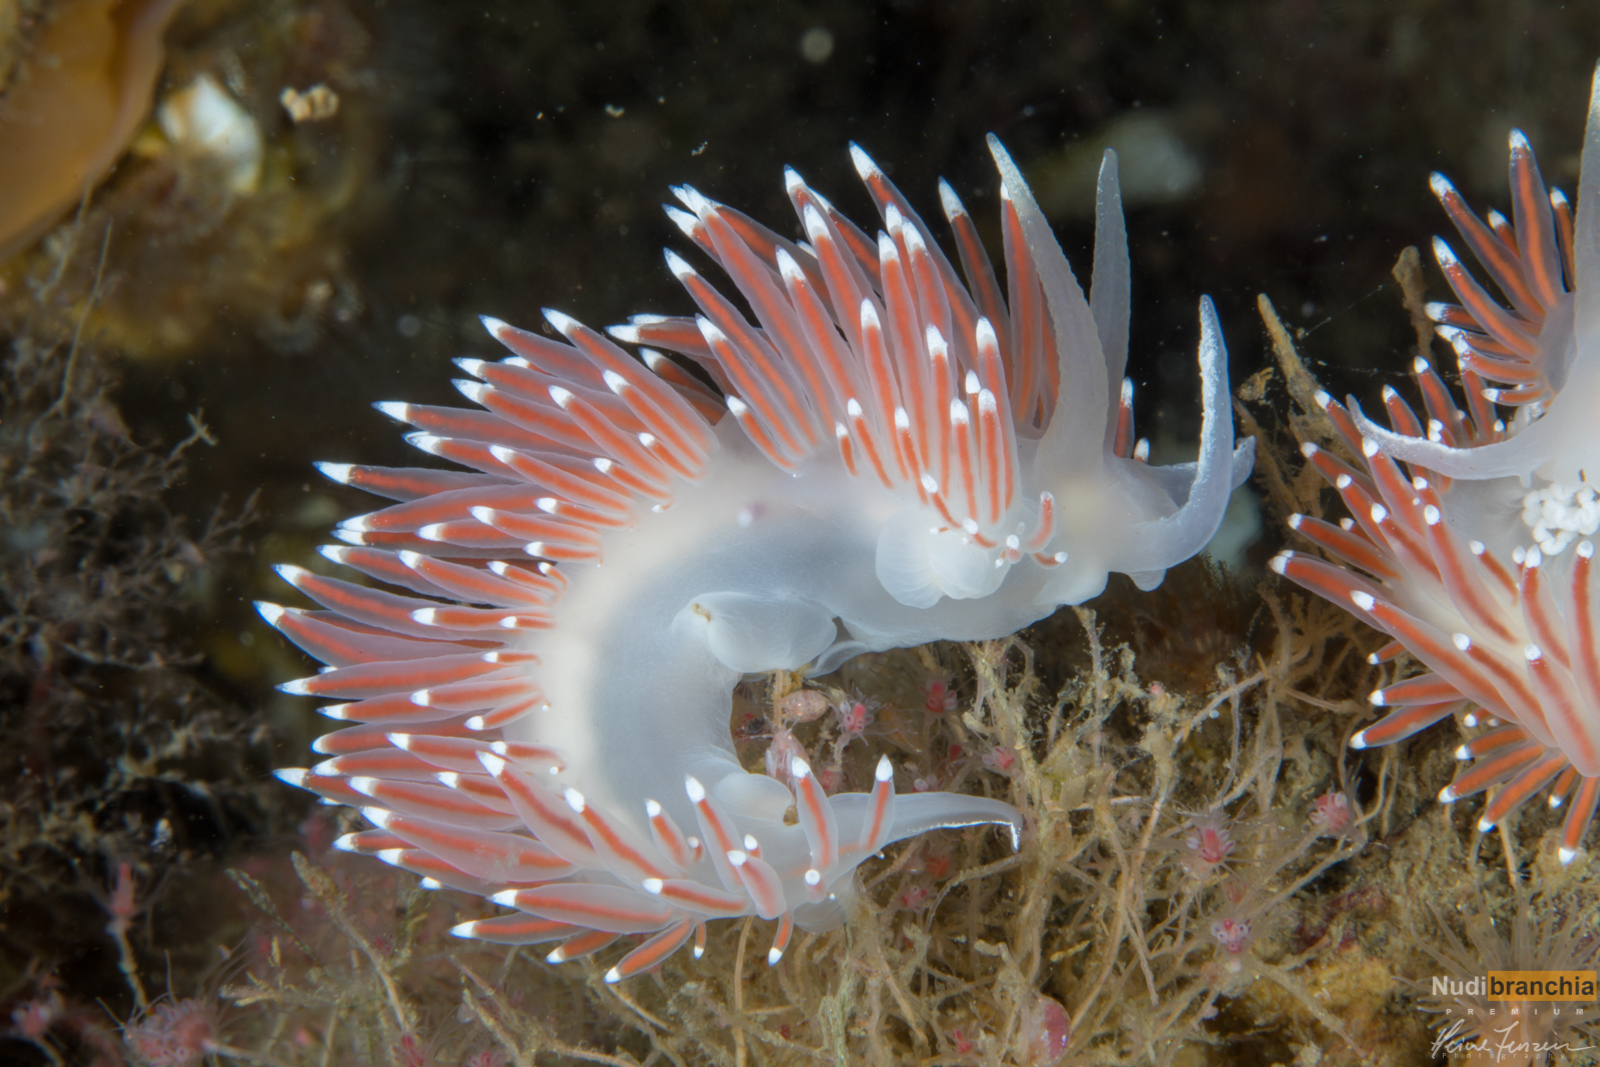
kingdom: Animalia
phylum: Mollusca
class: Gastropoda
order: Nudibranchia
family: Coryphellidae
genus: Coryphella
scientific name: Coryphella browni
